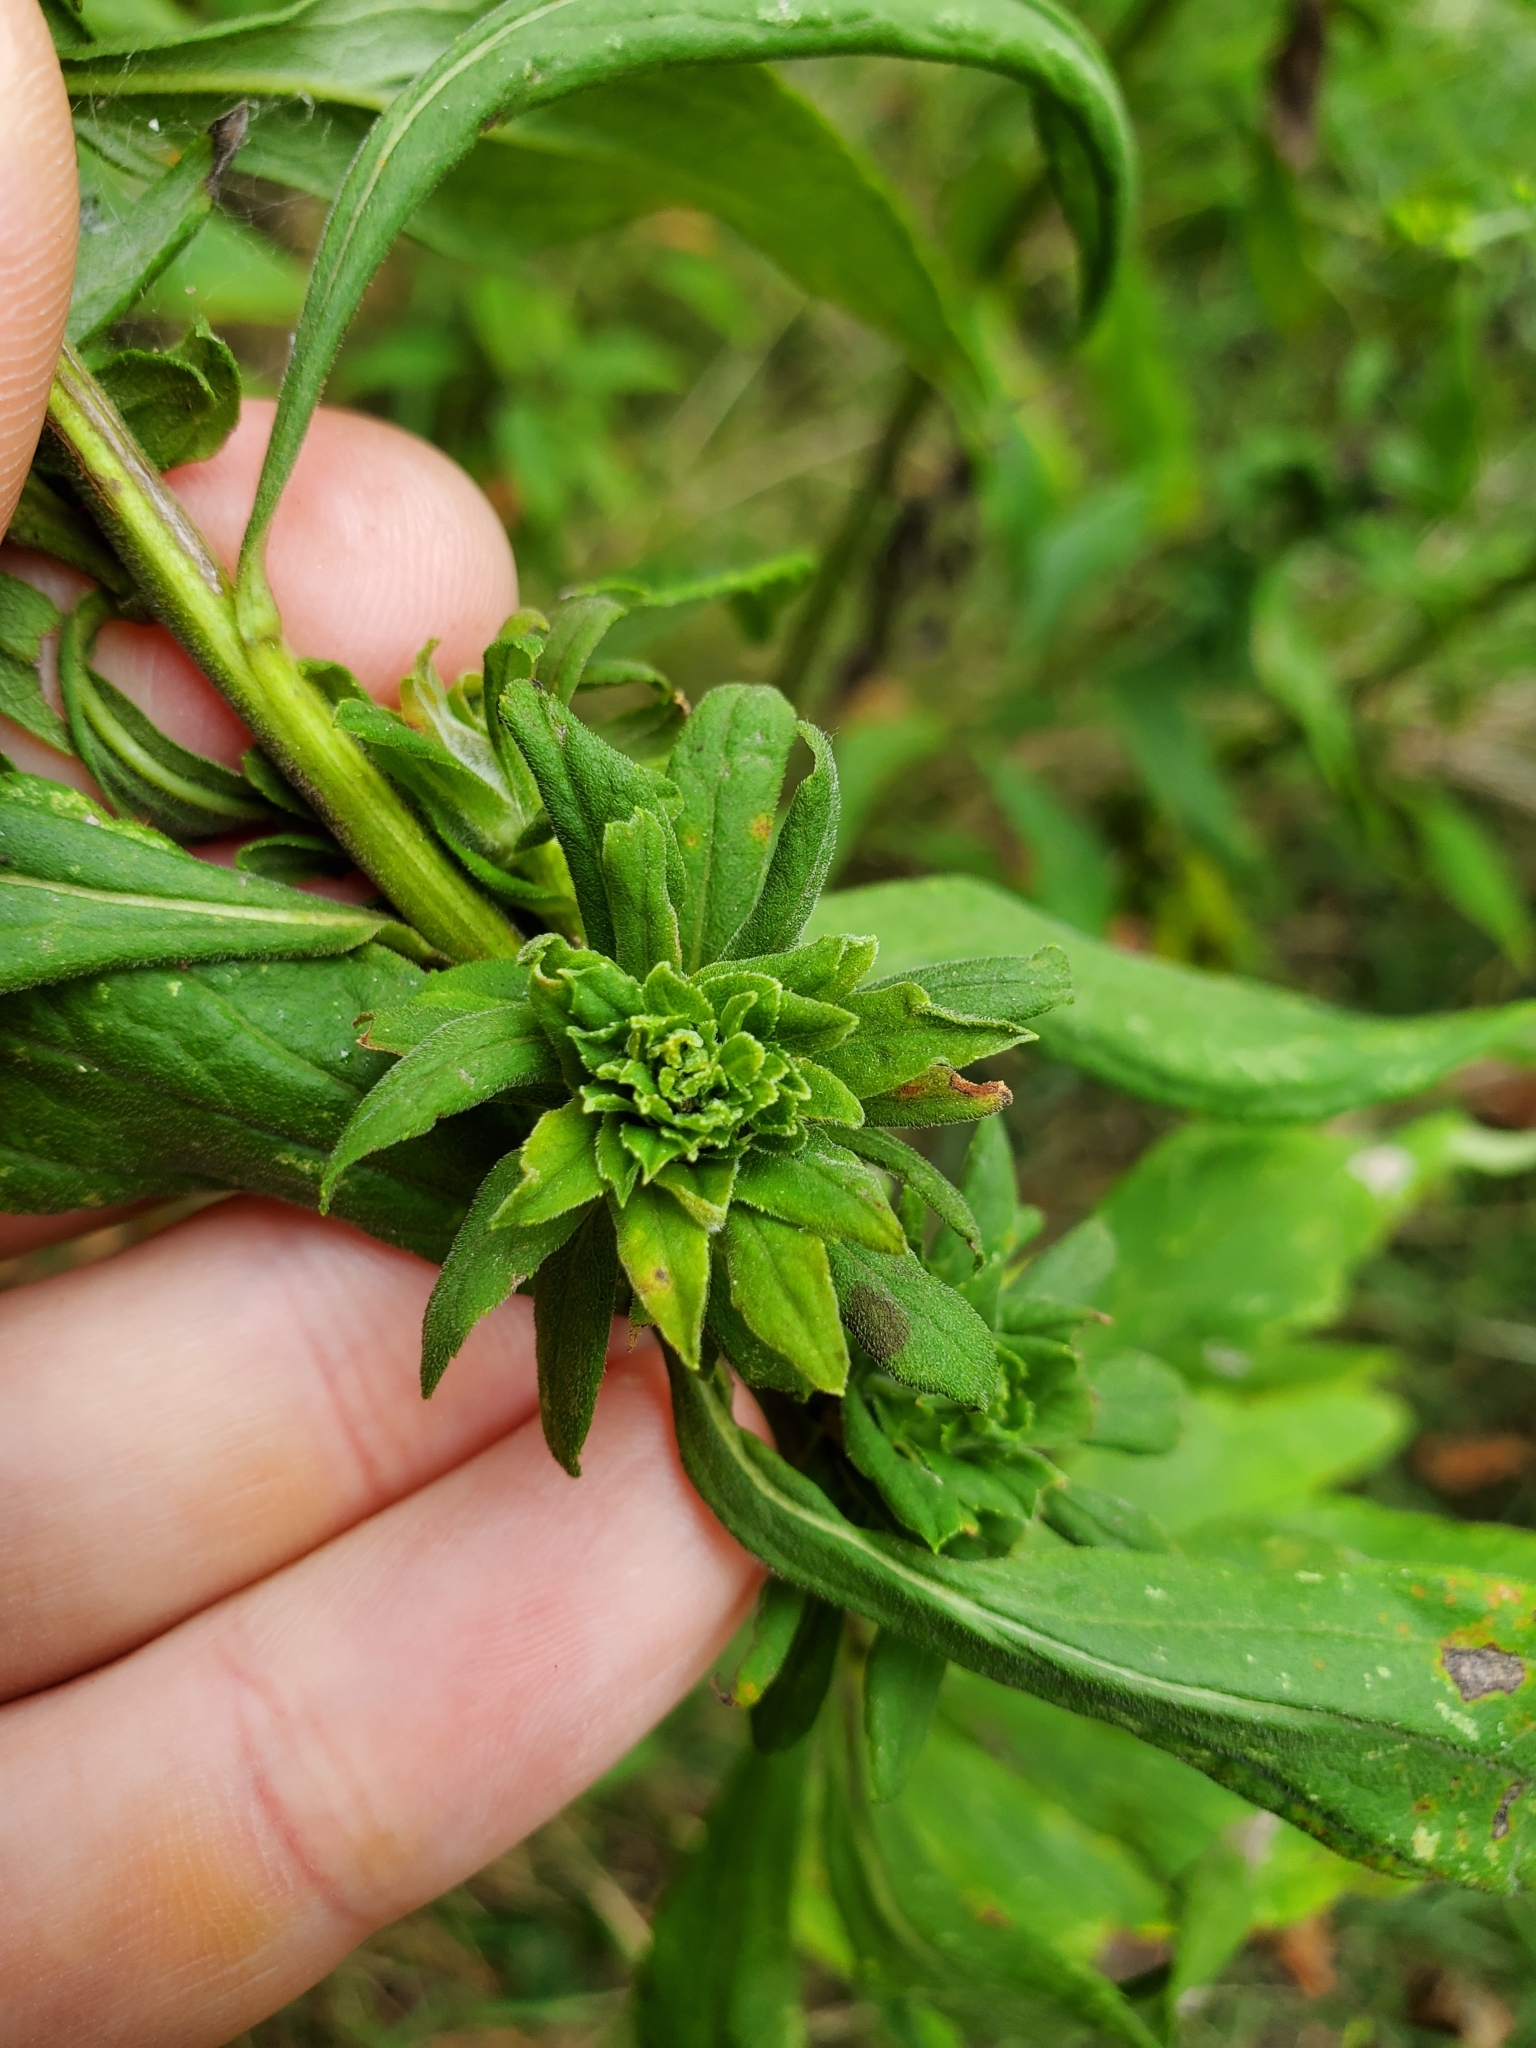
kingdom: Animalia
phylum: Arthropoda
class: Insecta
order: Diptera
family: Tephritidae
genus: Procecidochares
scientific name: Procecidochares atra
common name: Goldenrod brussels sprout gall fly
